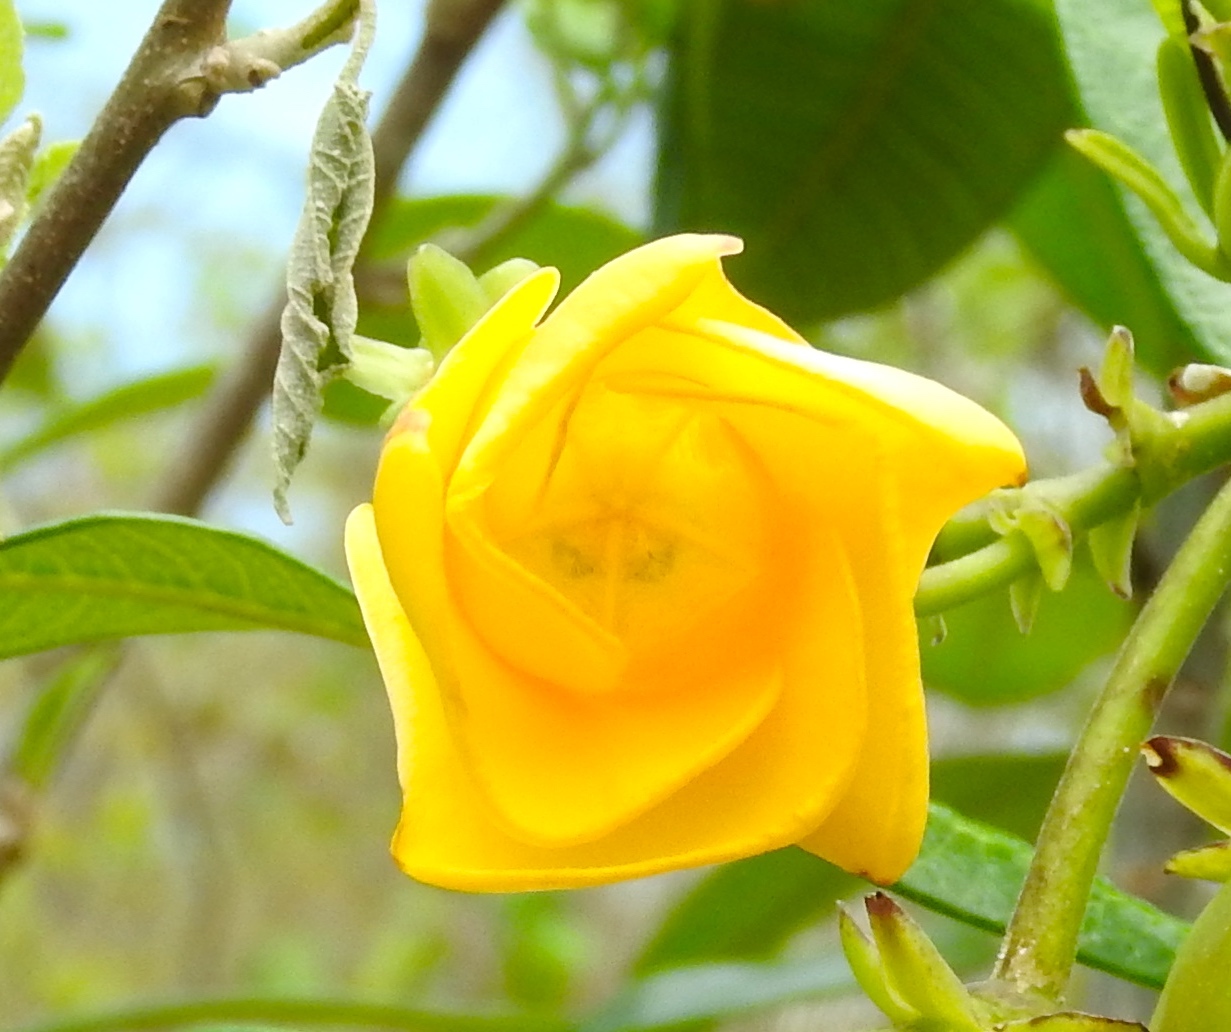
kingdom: Plantae
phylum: Tracheophyta
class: Magnoliopsida
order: Gentianales
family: Apocynaceae
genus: Cascabela
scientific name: Cascabela ovata
